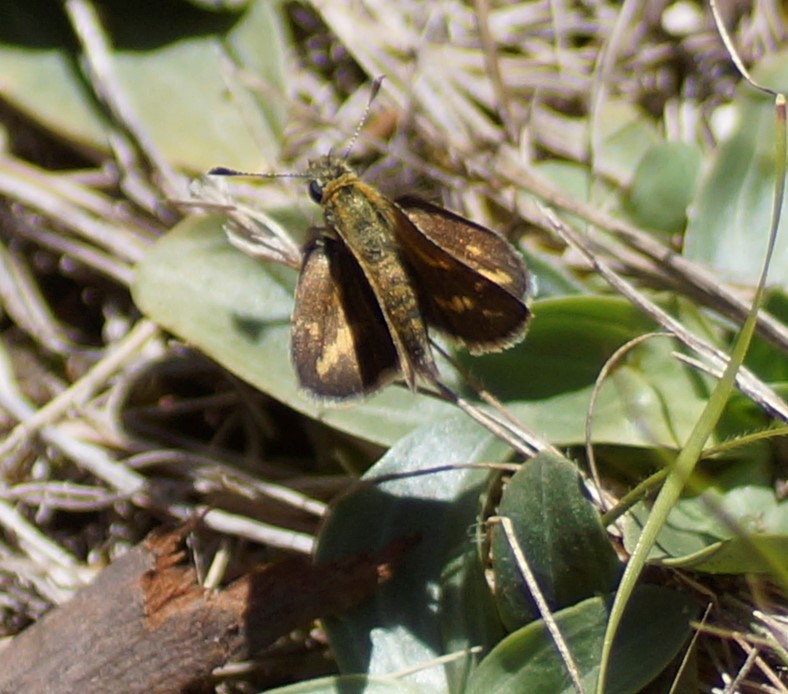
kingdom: Animalia
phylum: Arthropoda
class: Insecta
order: Lepidoptera
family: Hesperiidae
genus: Taractrocera
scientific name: Taractrocera papyria
